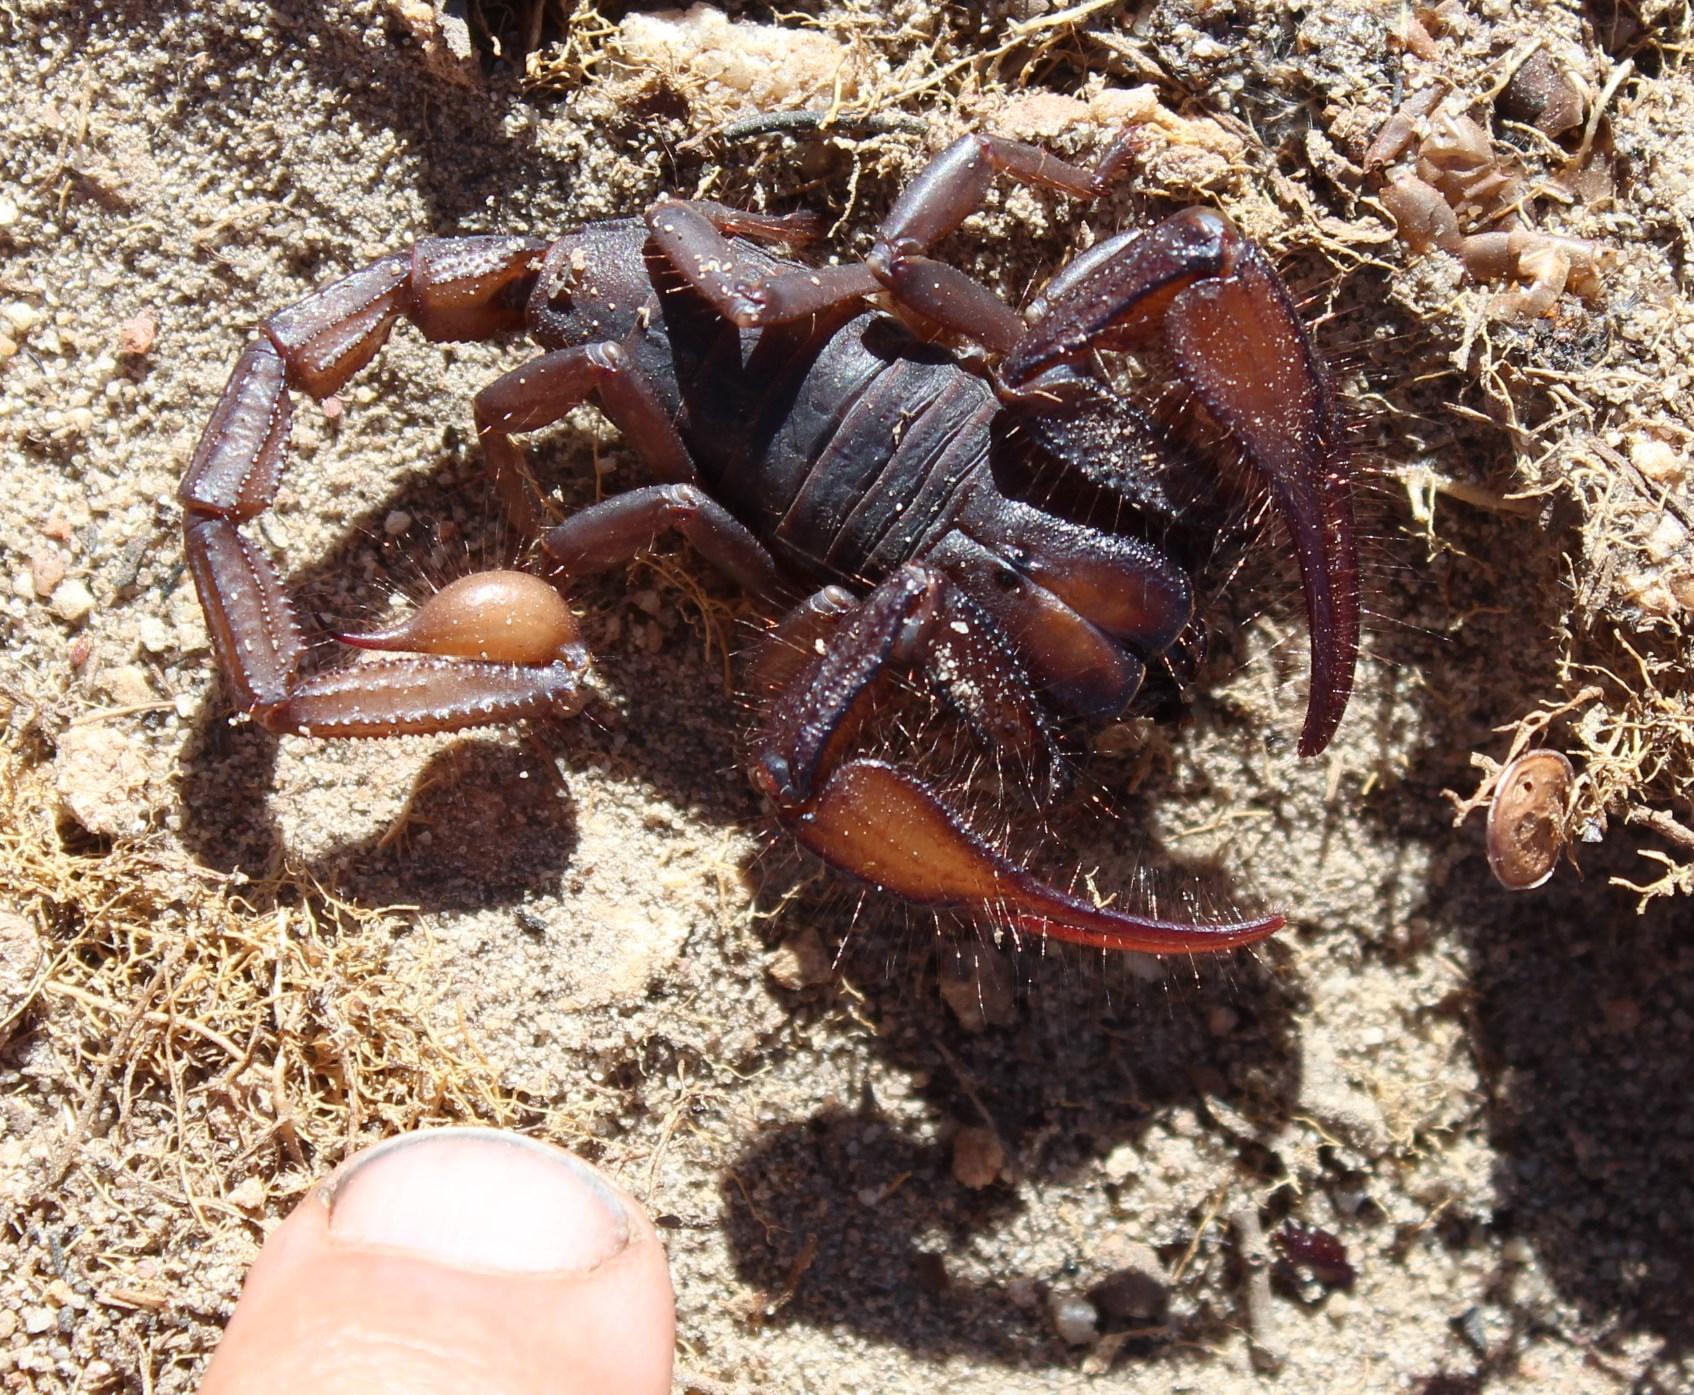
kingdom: Animalia
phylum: Arthropoda
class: Arachnida
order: Scorpiones
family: Scorpionidae
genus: Opistophthalmus
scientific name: Opistophthalmus pattisoni
